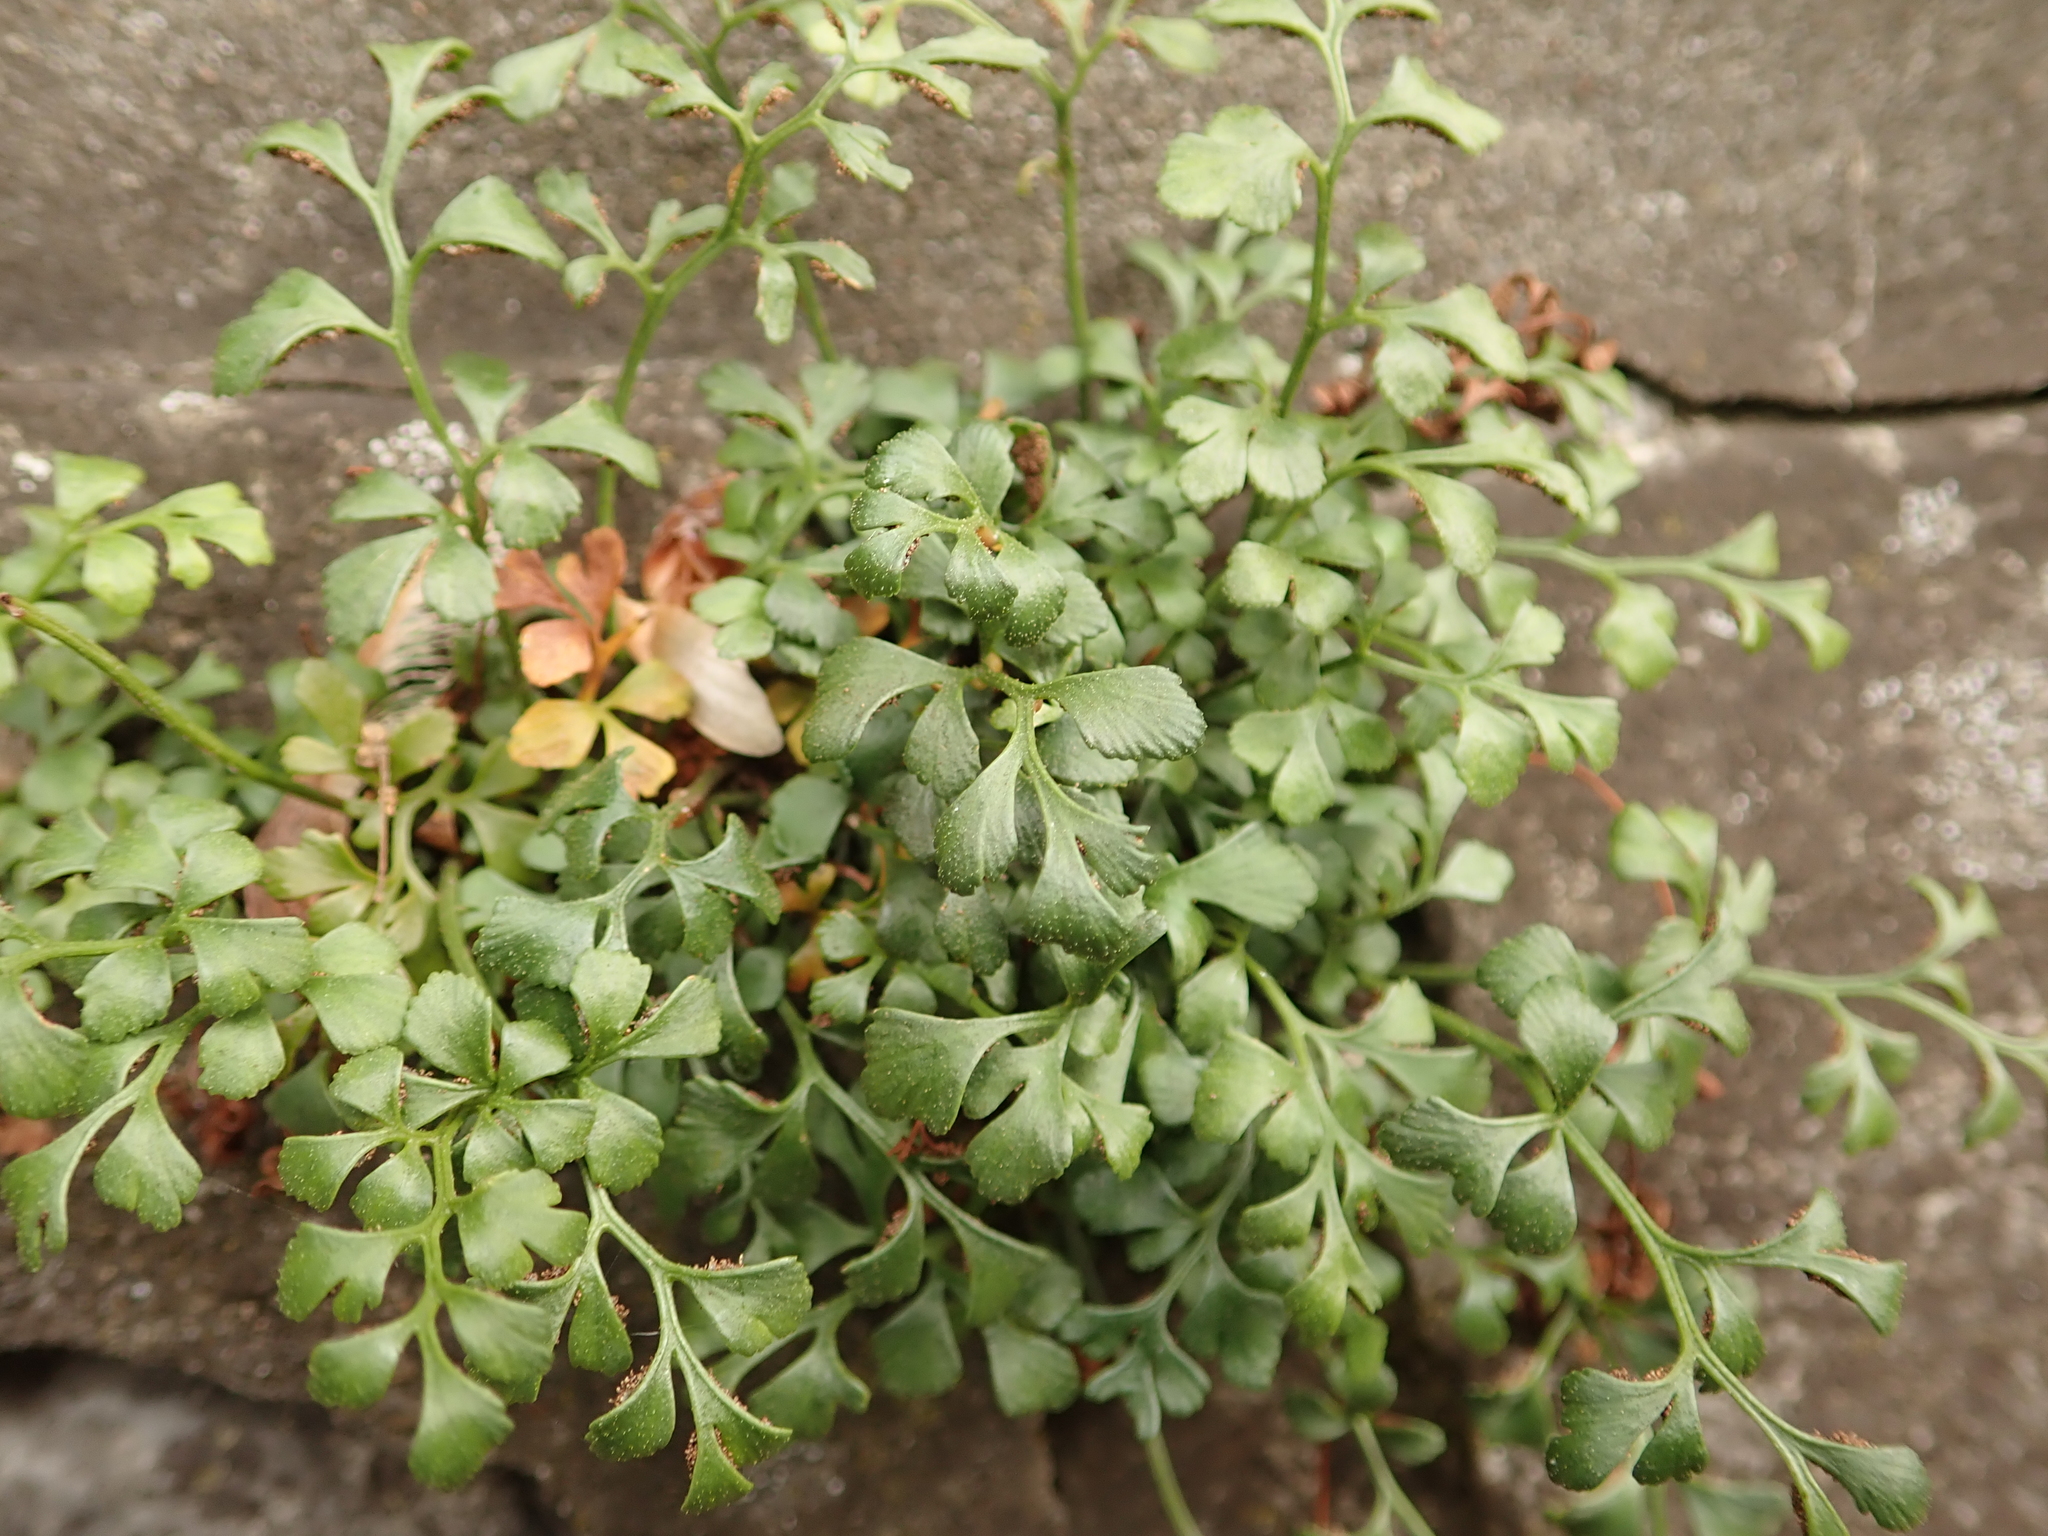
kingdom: Plantae
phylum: Tracheophyta
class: Polypodiopsida
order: Polypodiales
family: Aspleniaceae
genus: Asplenium
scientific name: Asplenium ruta-muraria
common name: Wall-rue
